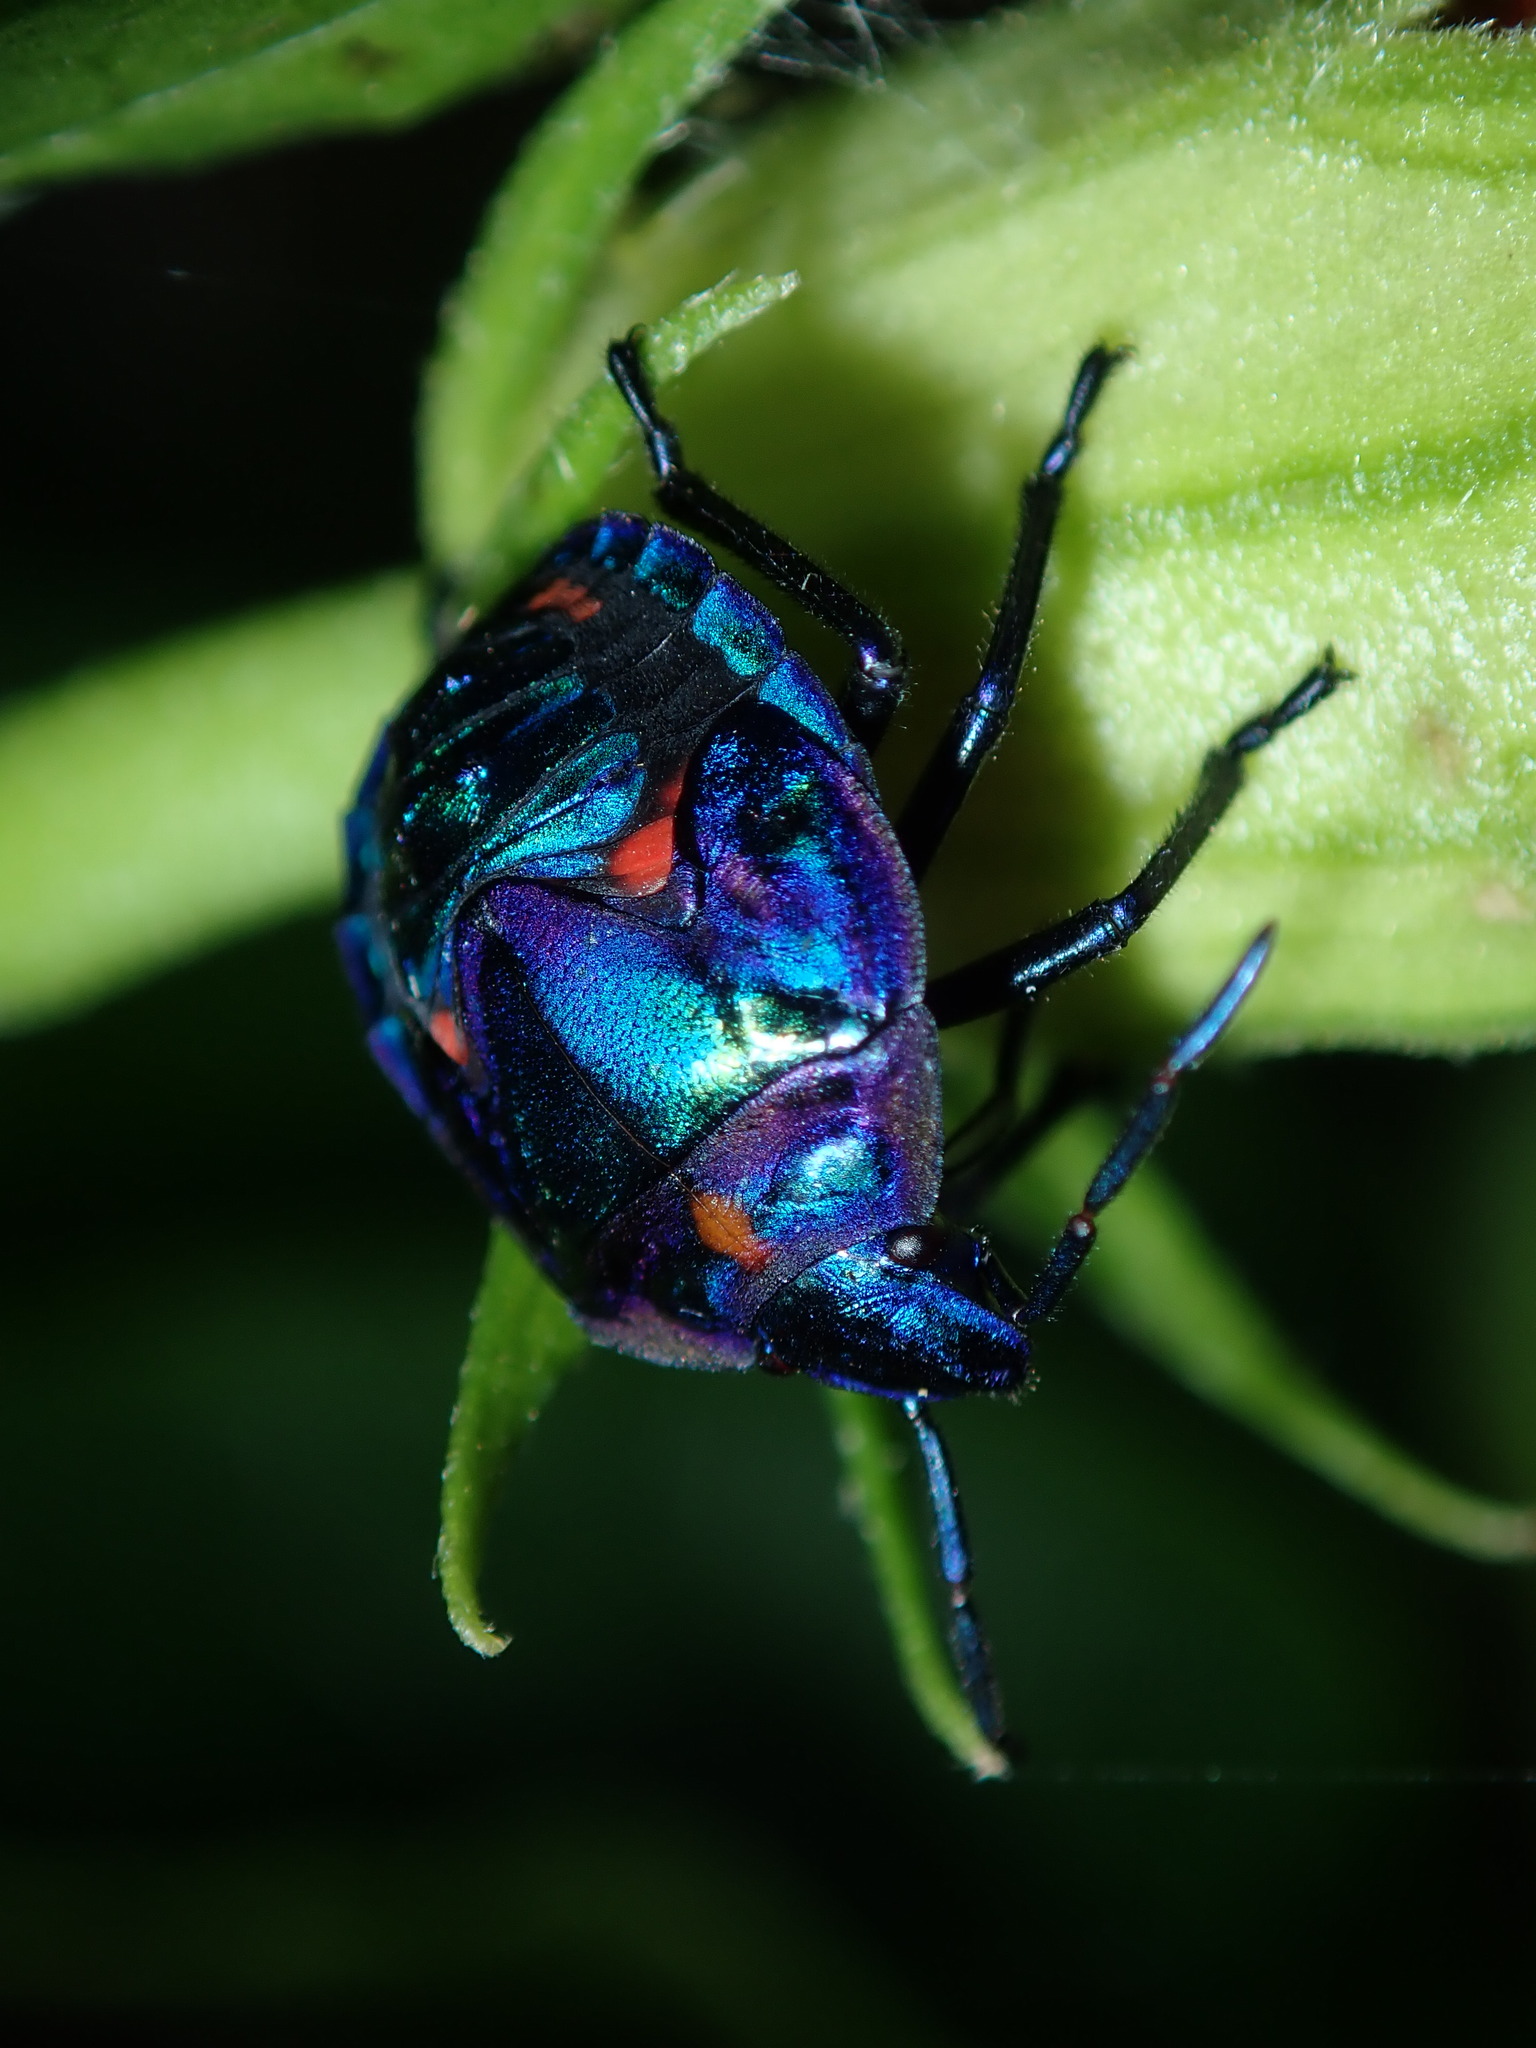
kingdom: Animalia
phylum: Arthropoda
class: Insecta
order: Hemiptera
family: Scutelleridae
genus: Tectocoris
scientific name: Tectocoris diophthalmus
